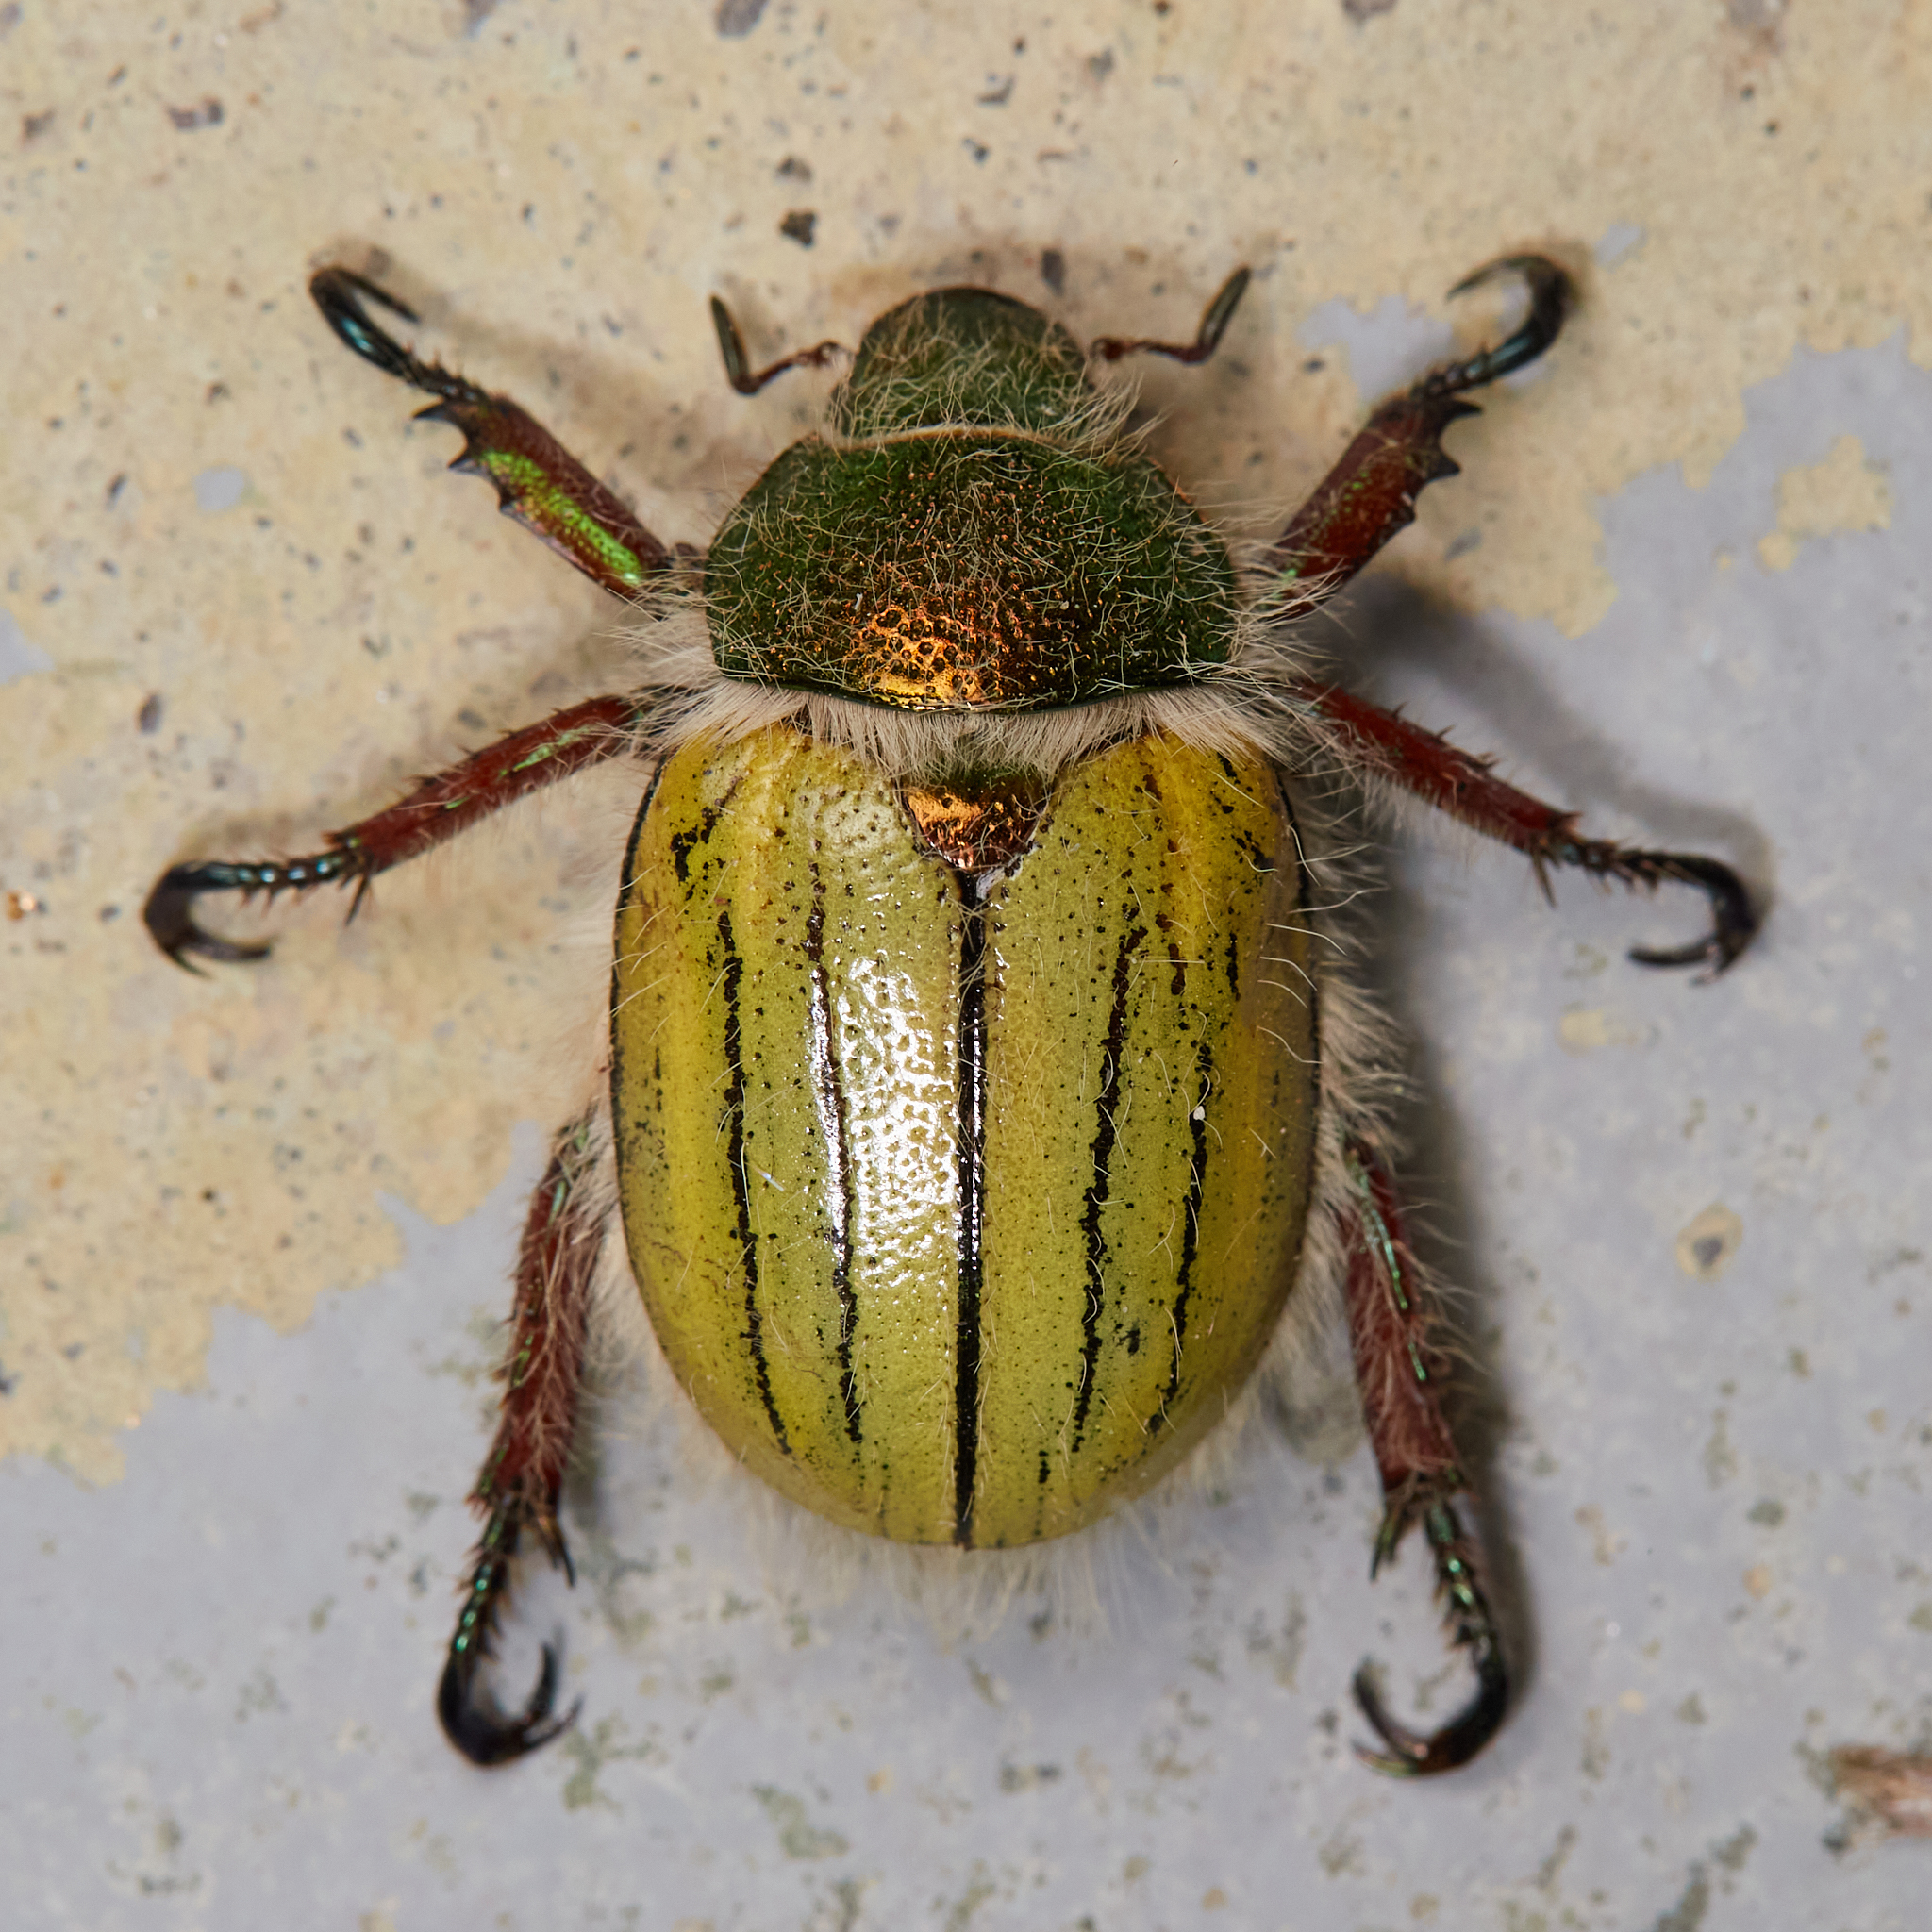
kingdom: Animalia
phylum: Arthropoda
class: Insecta
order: Coleoptera
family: Scarabaeidae
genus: Paracotalpa
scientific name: Paracotalpa puncticollis
